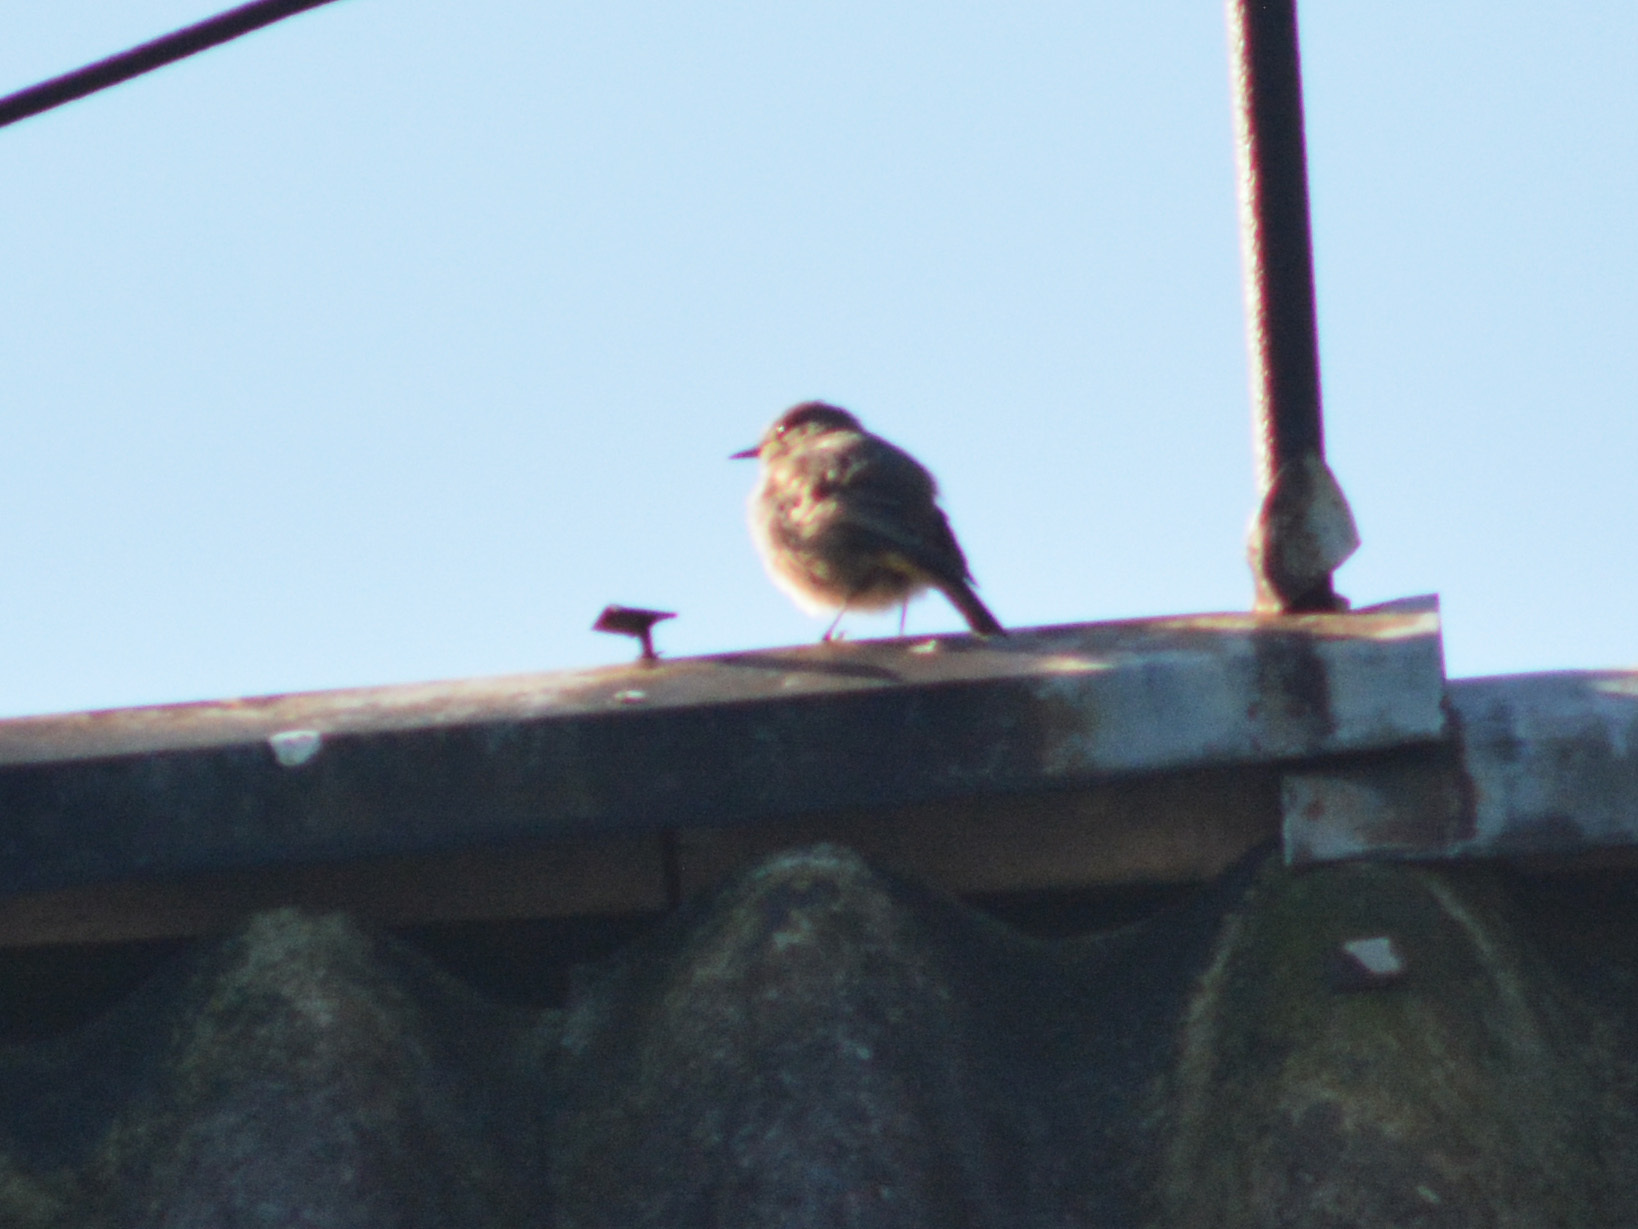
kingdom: Animalia
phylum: Chordata
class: Aves
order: Passeriformes
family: Muscicapidae
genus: Phoenicurus
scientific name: Phoenicurus ochruros
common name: Black redstart
